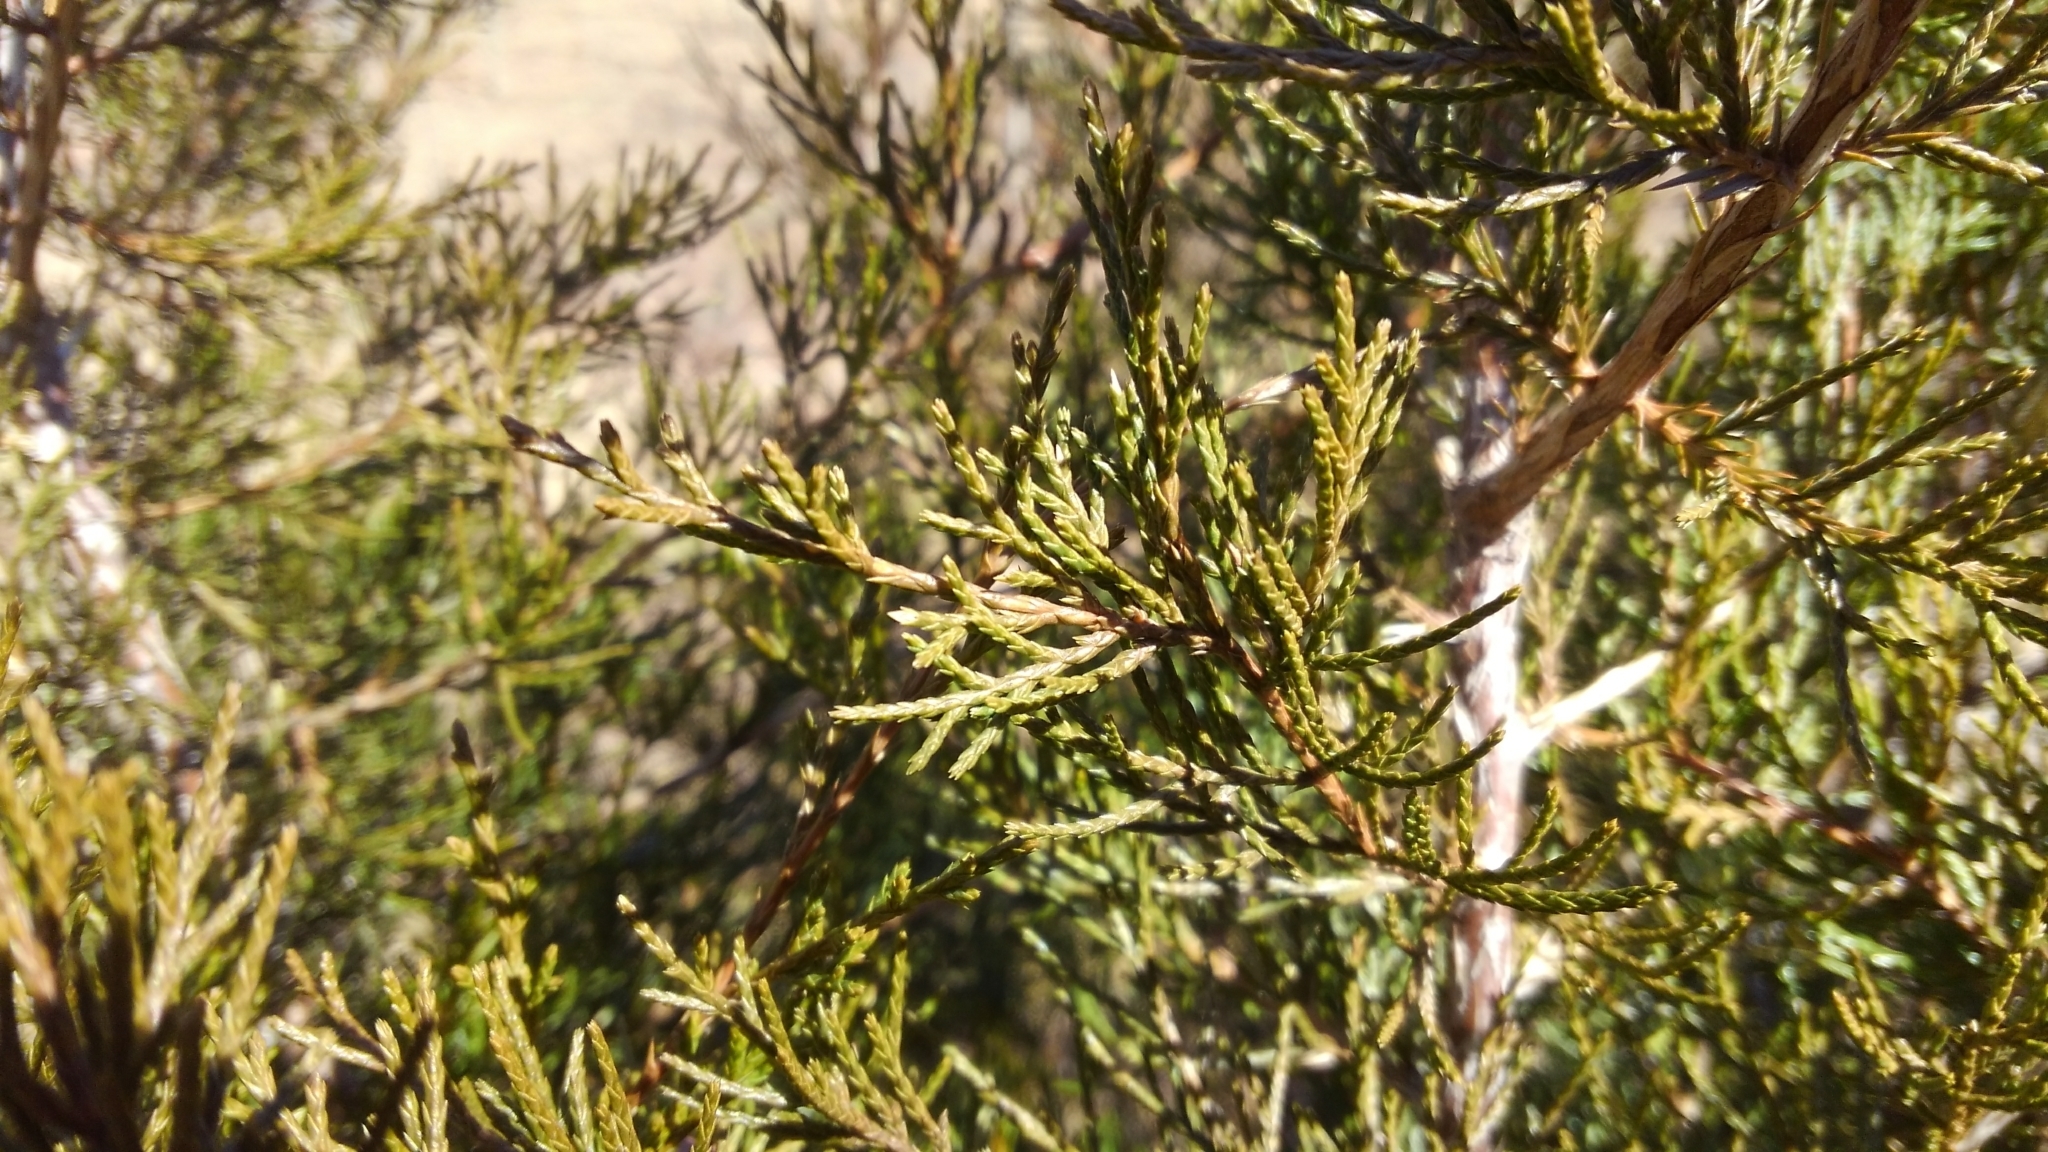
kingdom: Plantae
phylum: Tracheophyta
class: Pinopsida
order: Pinales
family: Cupressaceae
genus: Juniperus
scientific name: Juniperus virginiana
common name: Red juniper
